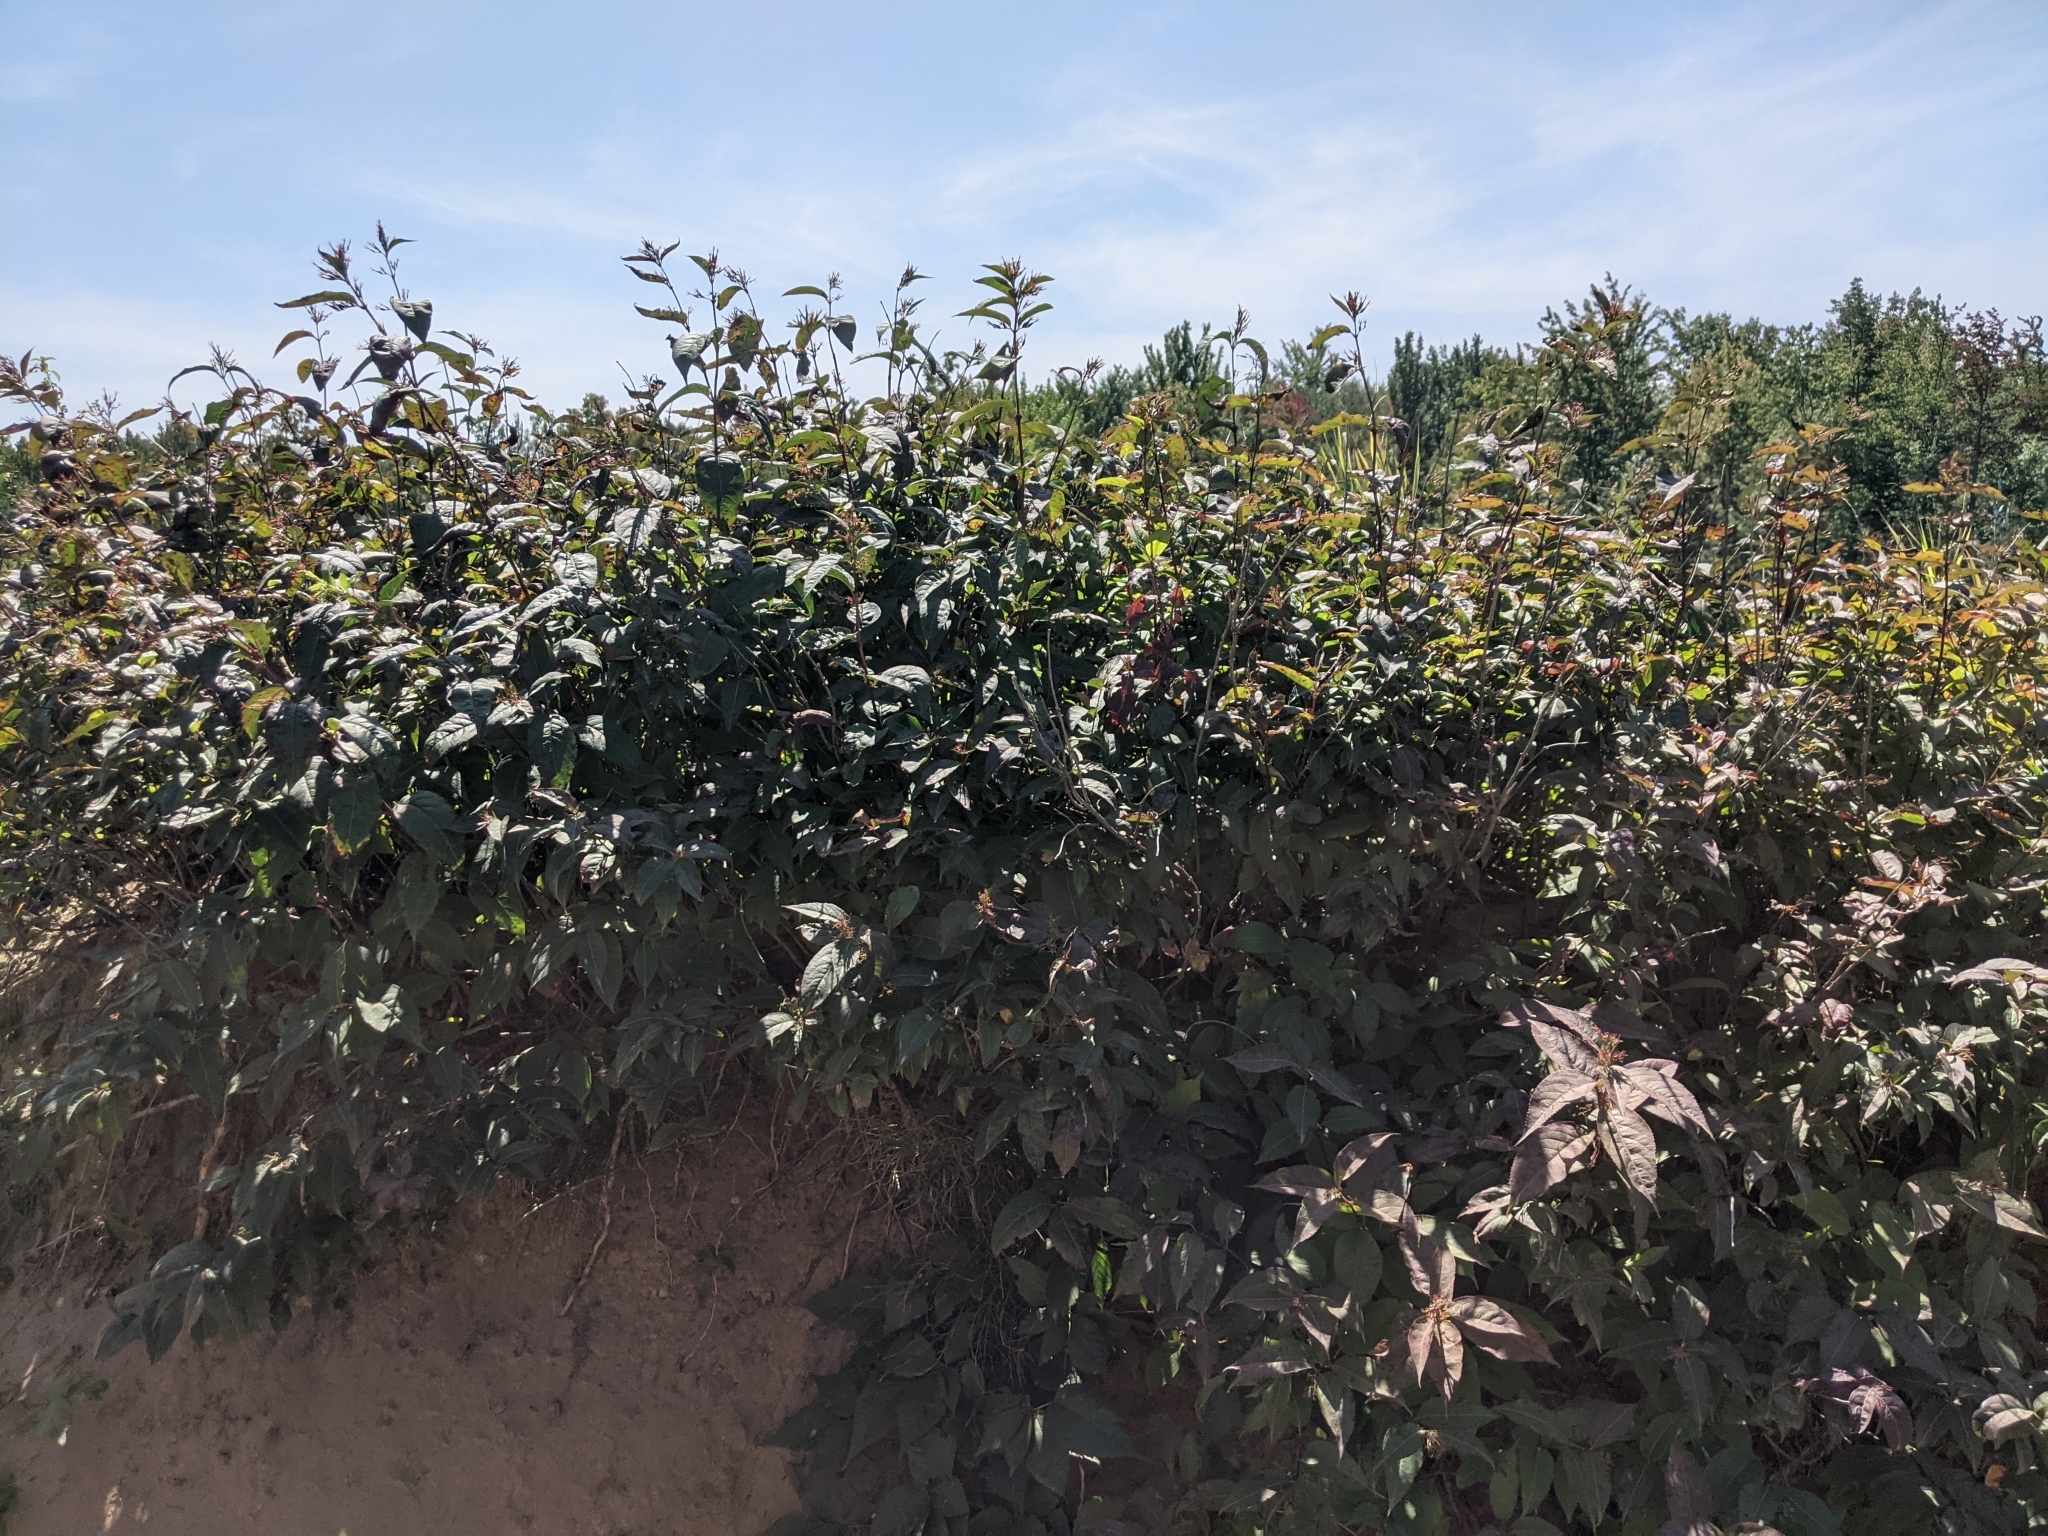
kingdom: Plantae
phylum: Tracheophyta
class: Magnoliopsida
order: Dipsacales
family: Caprifoliaceae
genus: Diervilla
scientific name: Diervilla lonicera
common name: Bush-honeysuckle
